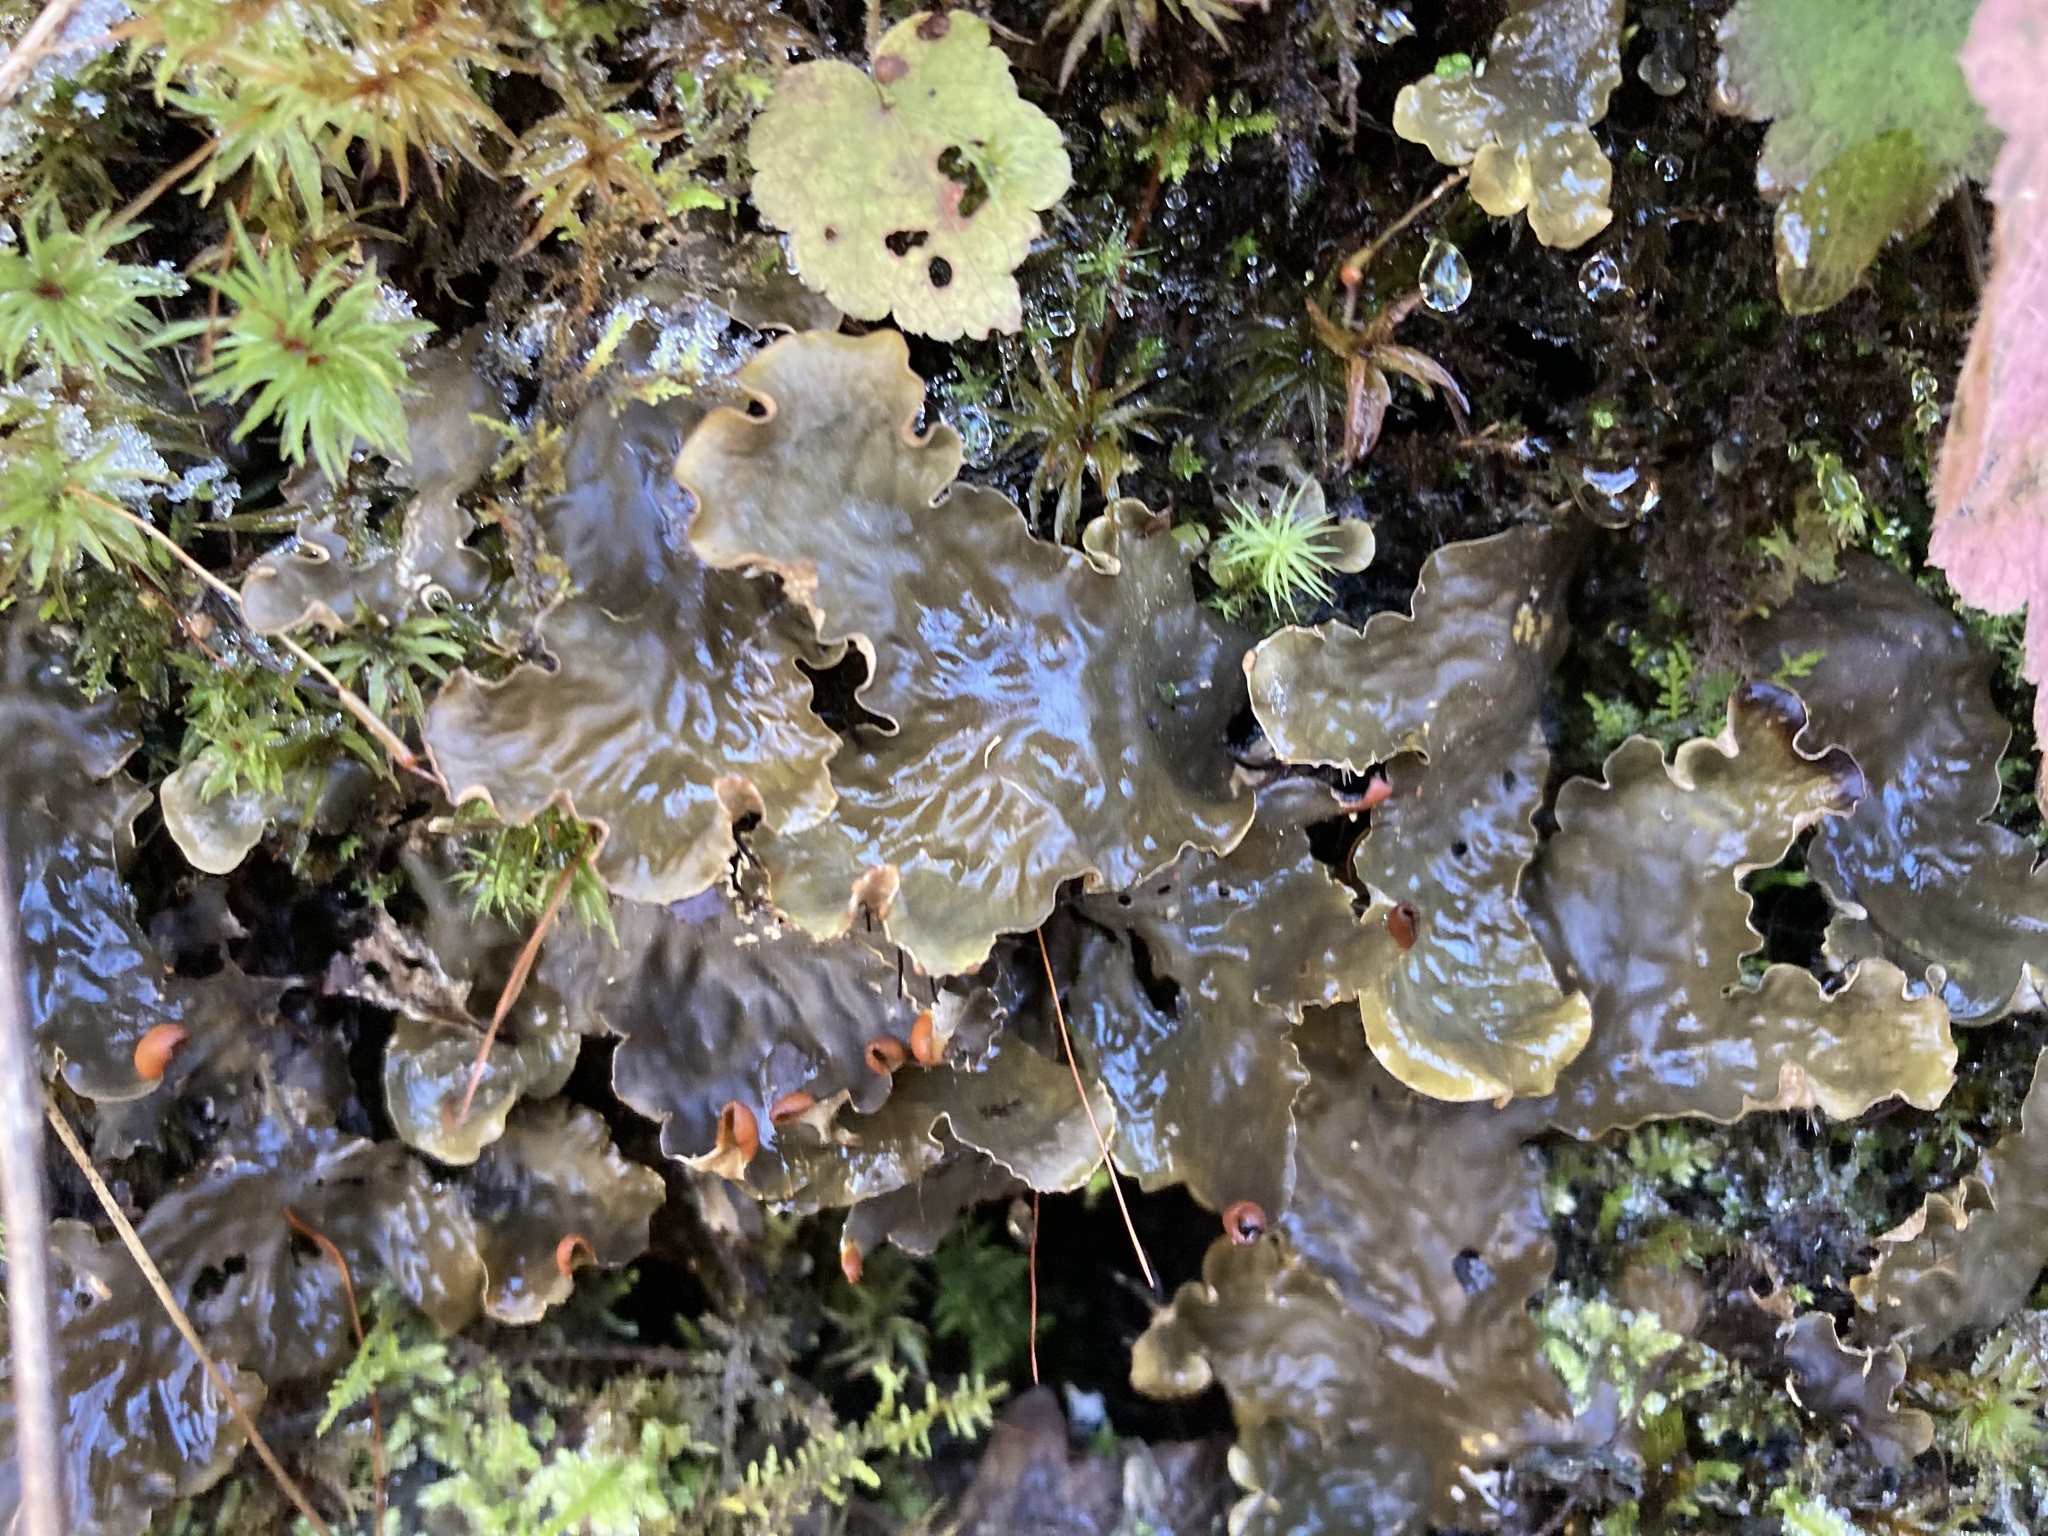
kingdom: Fungi
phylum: Ascomycota
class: Lecanoromycetes
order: Peltigerales
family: Peltigeraceae
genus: Peltigera
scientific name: Peltigera neopolydactyla
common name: Carpet pelt
